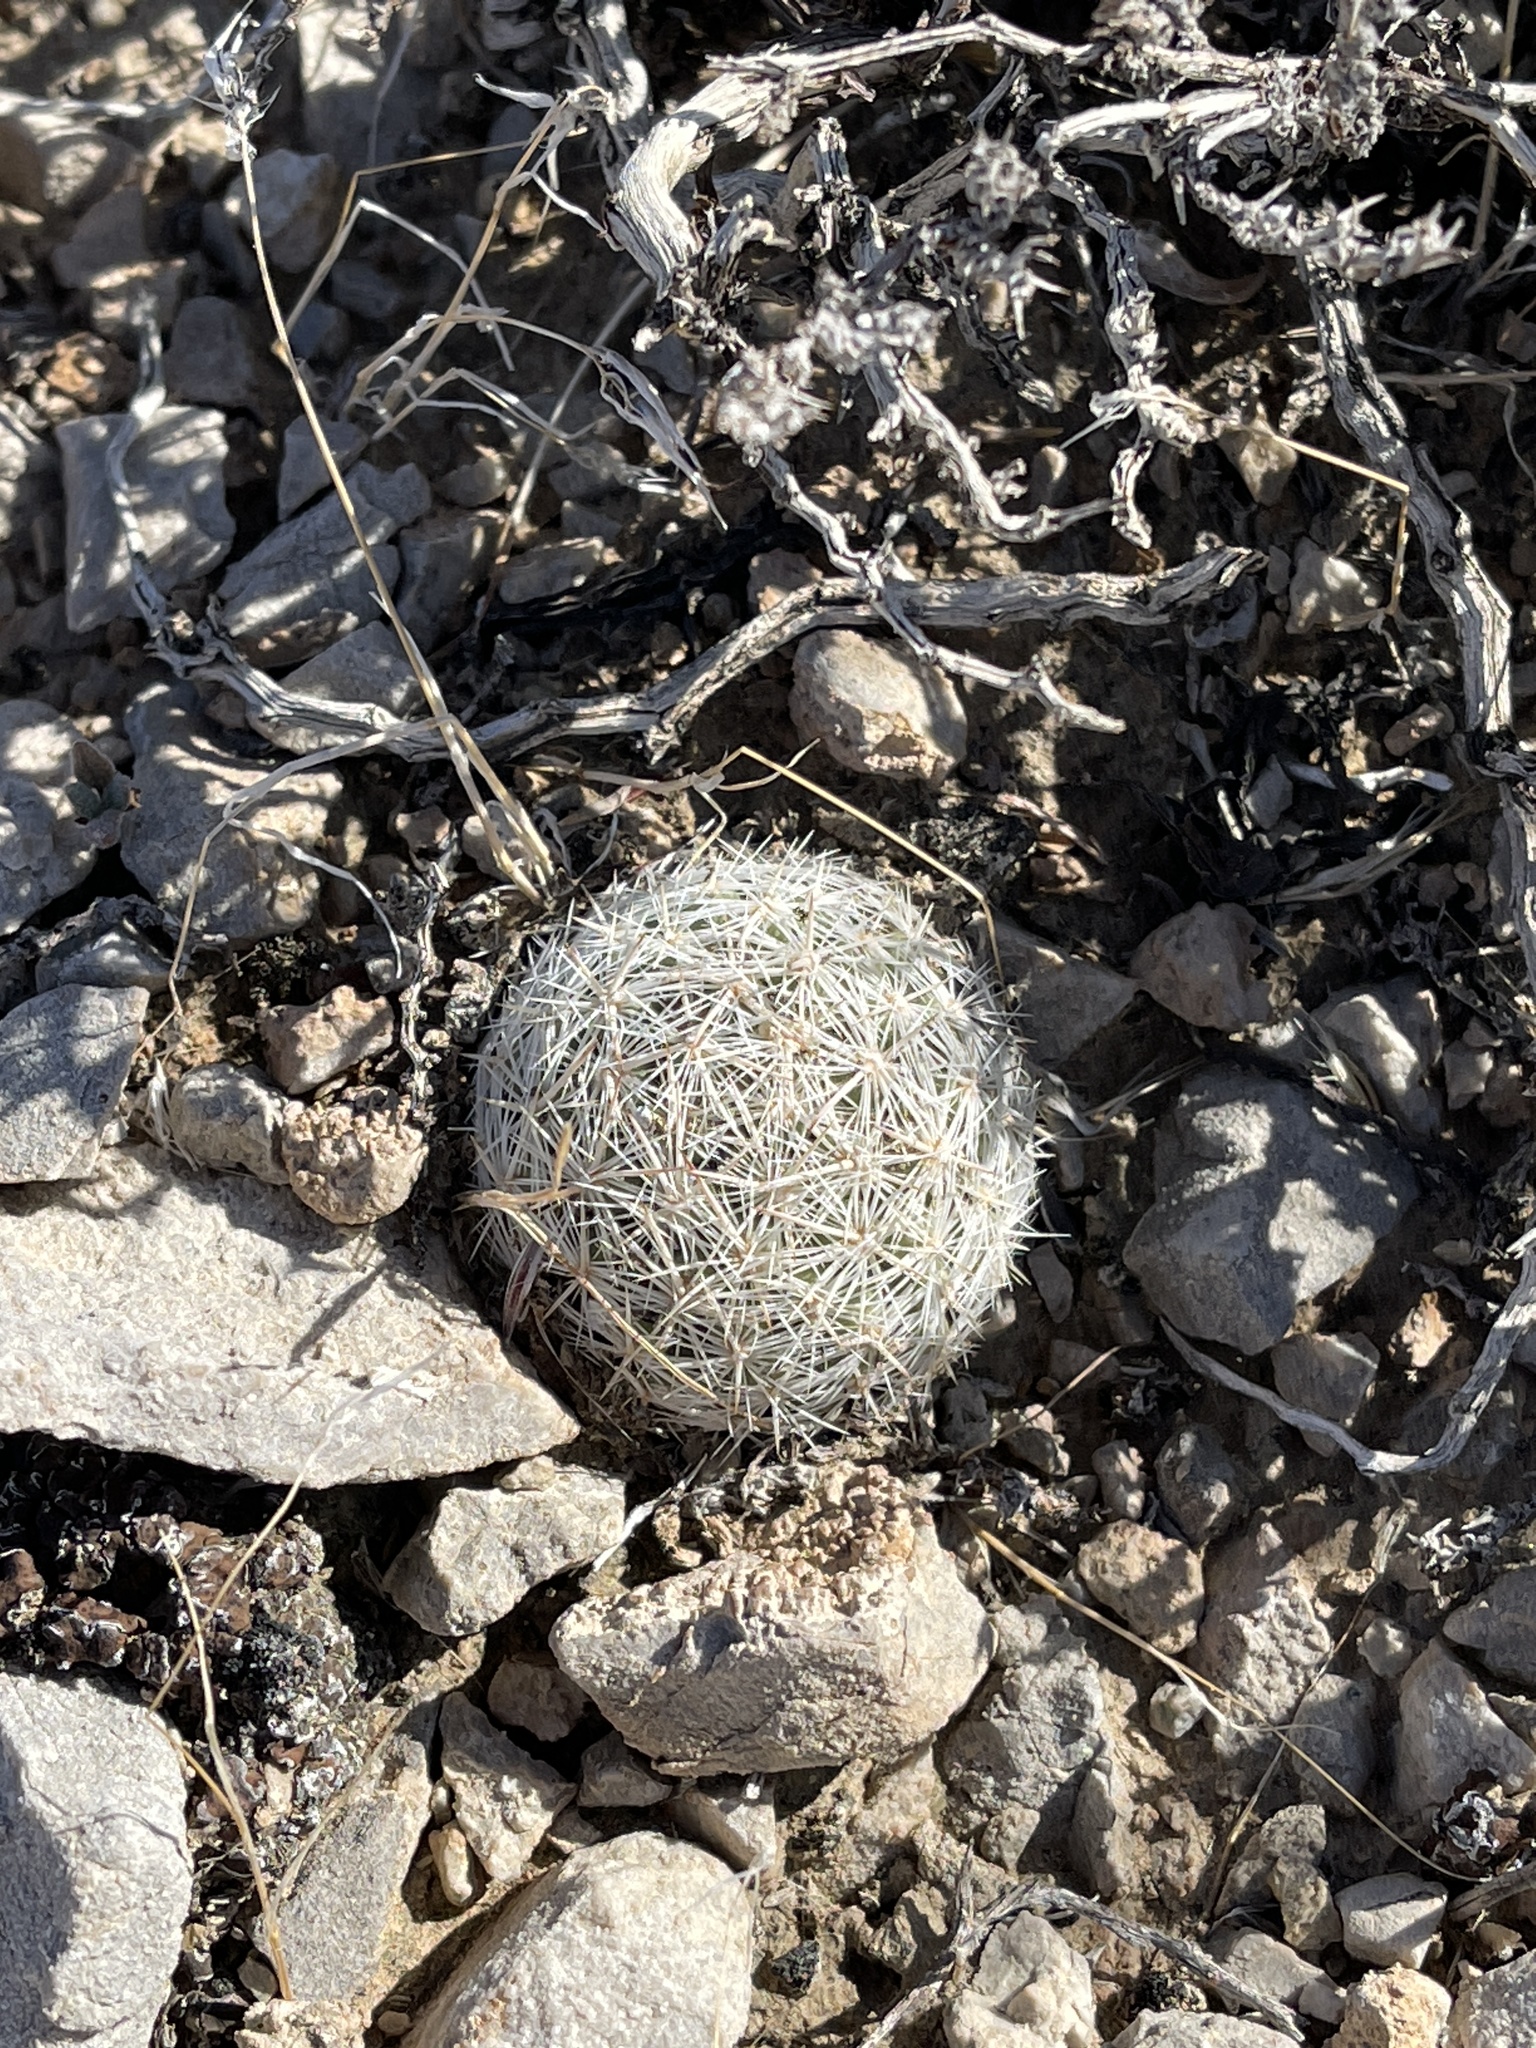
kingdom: Plantae
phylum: Tracheophyta
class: Magnoliopsida
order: Caryophyllales
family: Cactaceae
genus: Pelecyphora
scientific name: Pelecyphora vivipara
